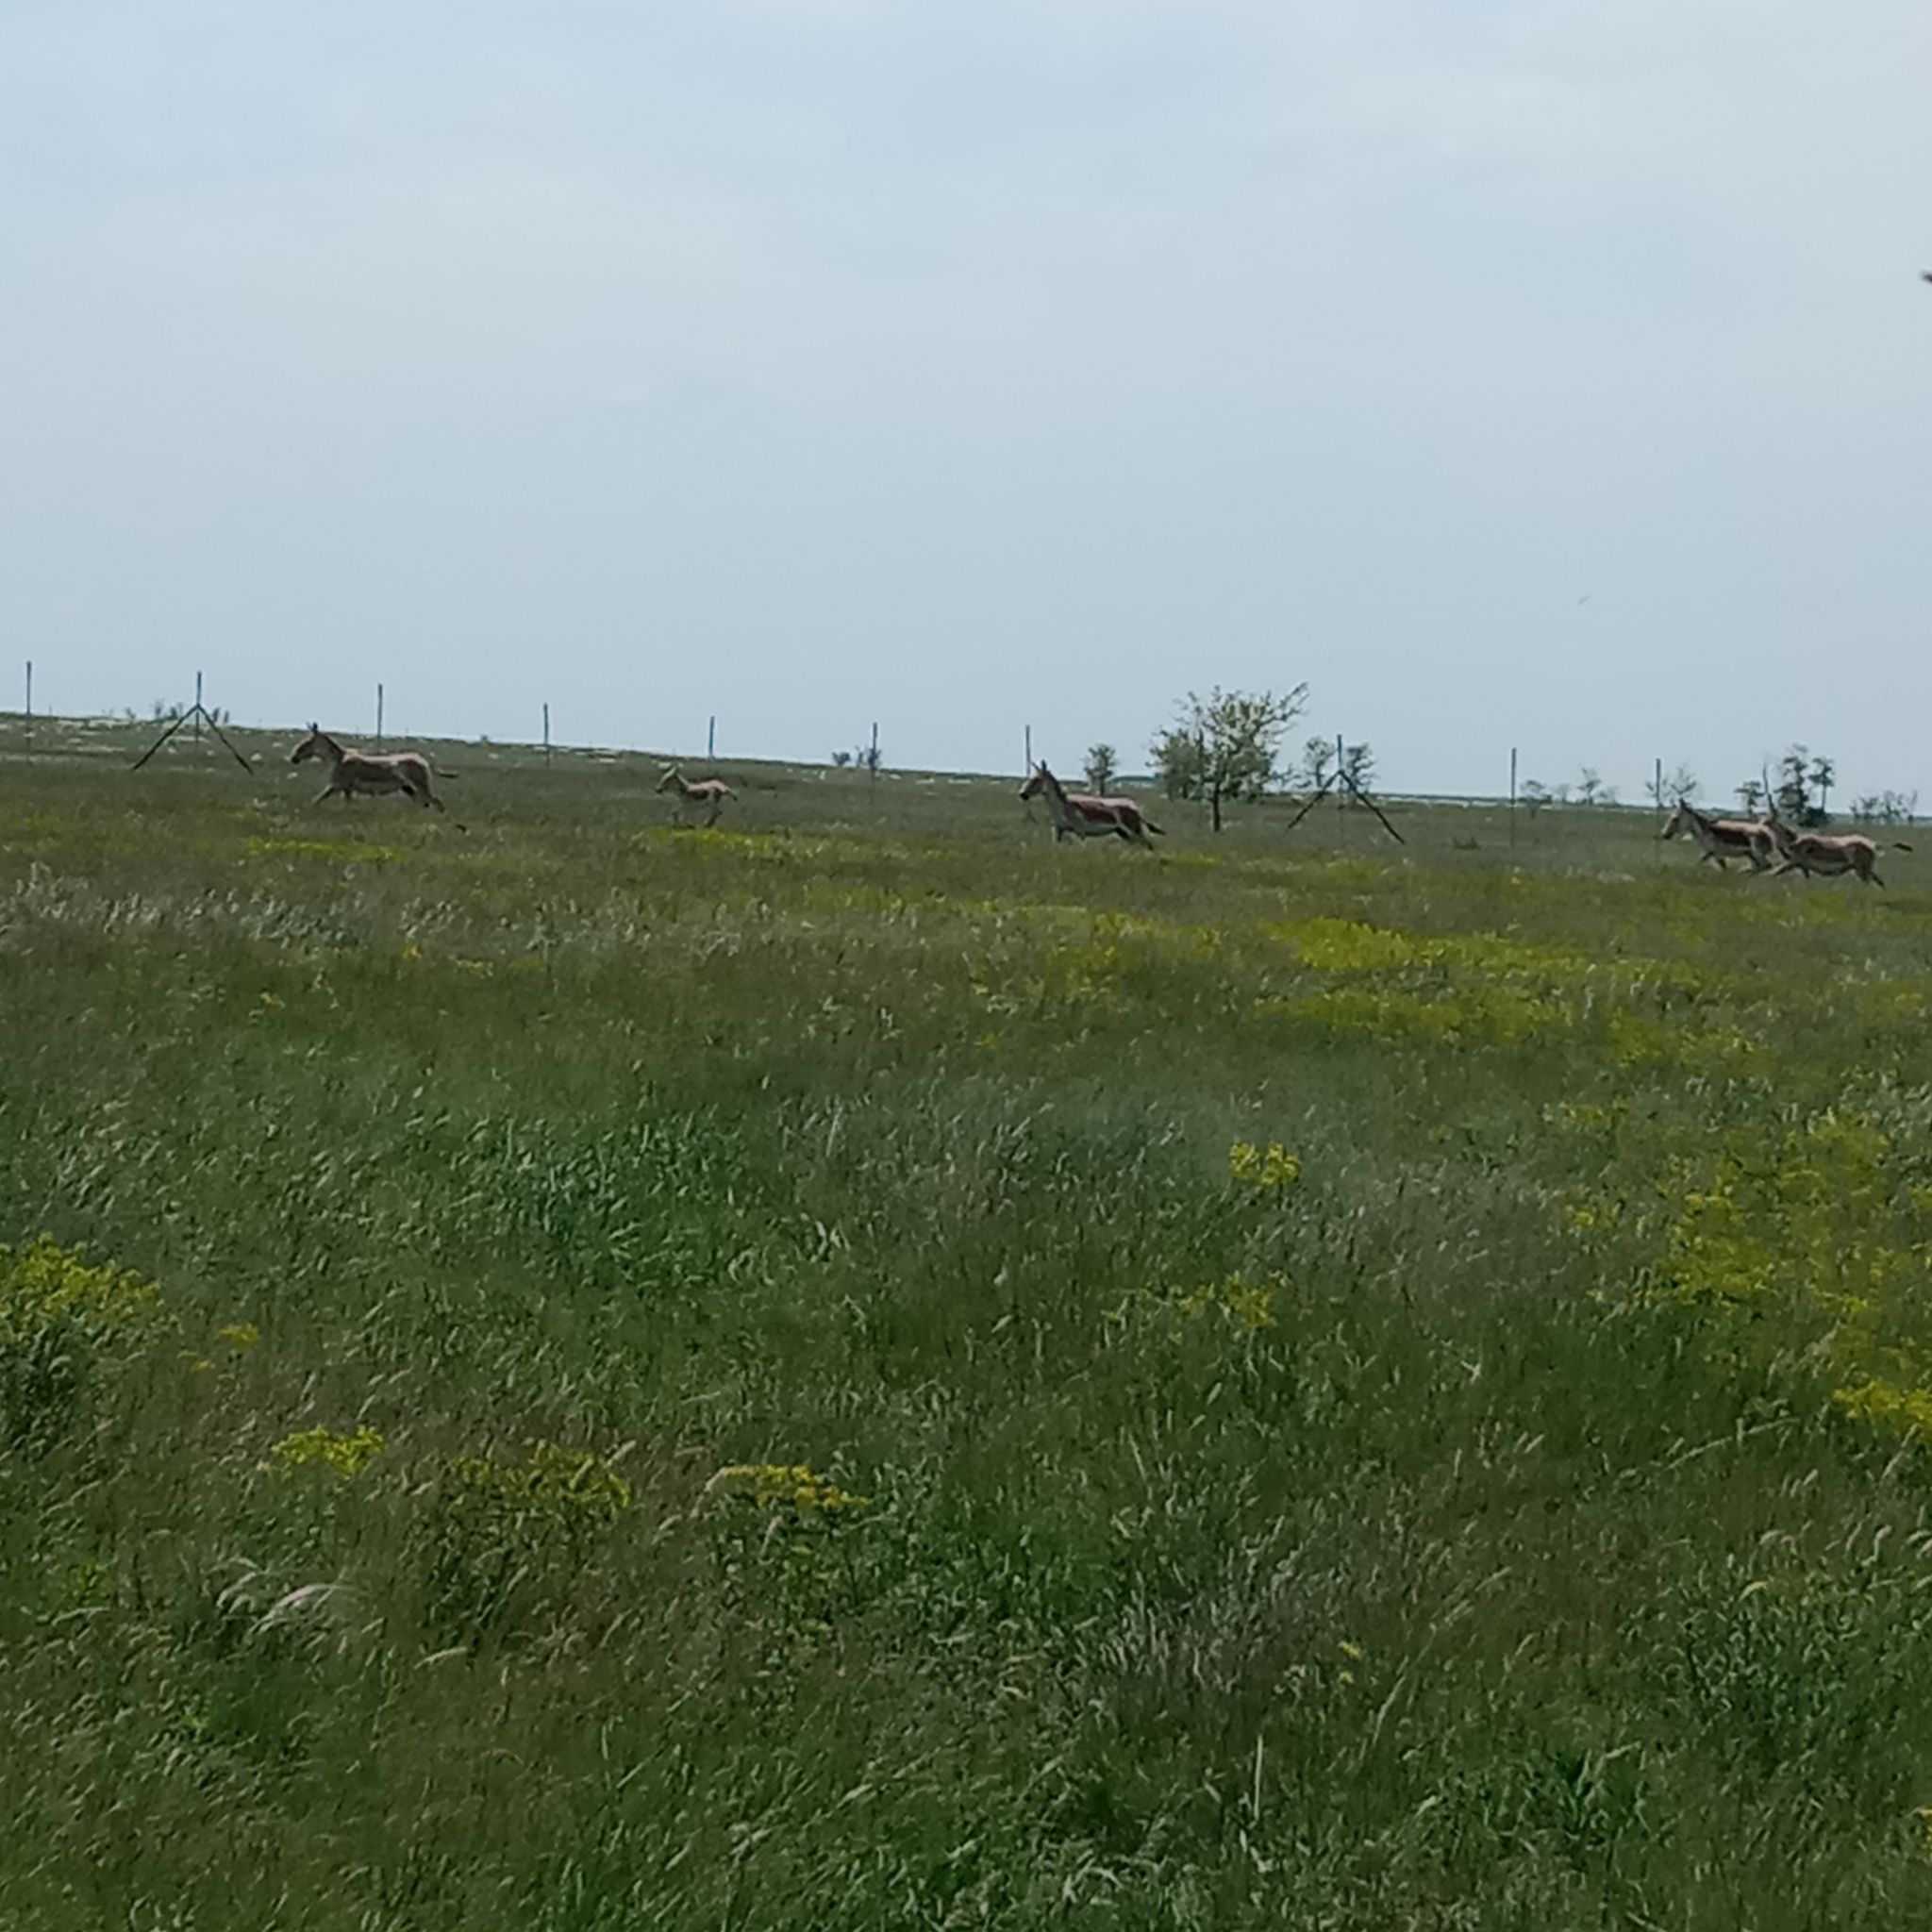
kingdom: Animalia
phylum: Chordata
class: Mammalia
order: Perissodactyla
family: Equidae
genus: Equus
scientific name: Equus hemionus
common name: Onager
